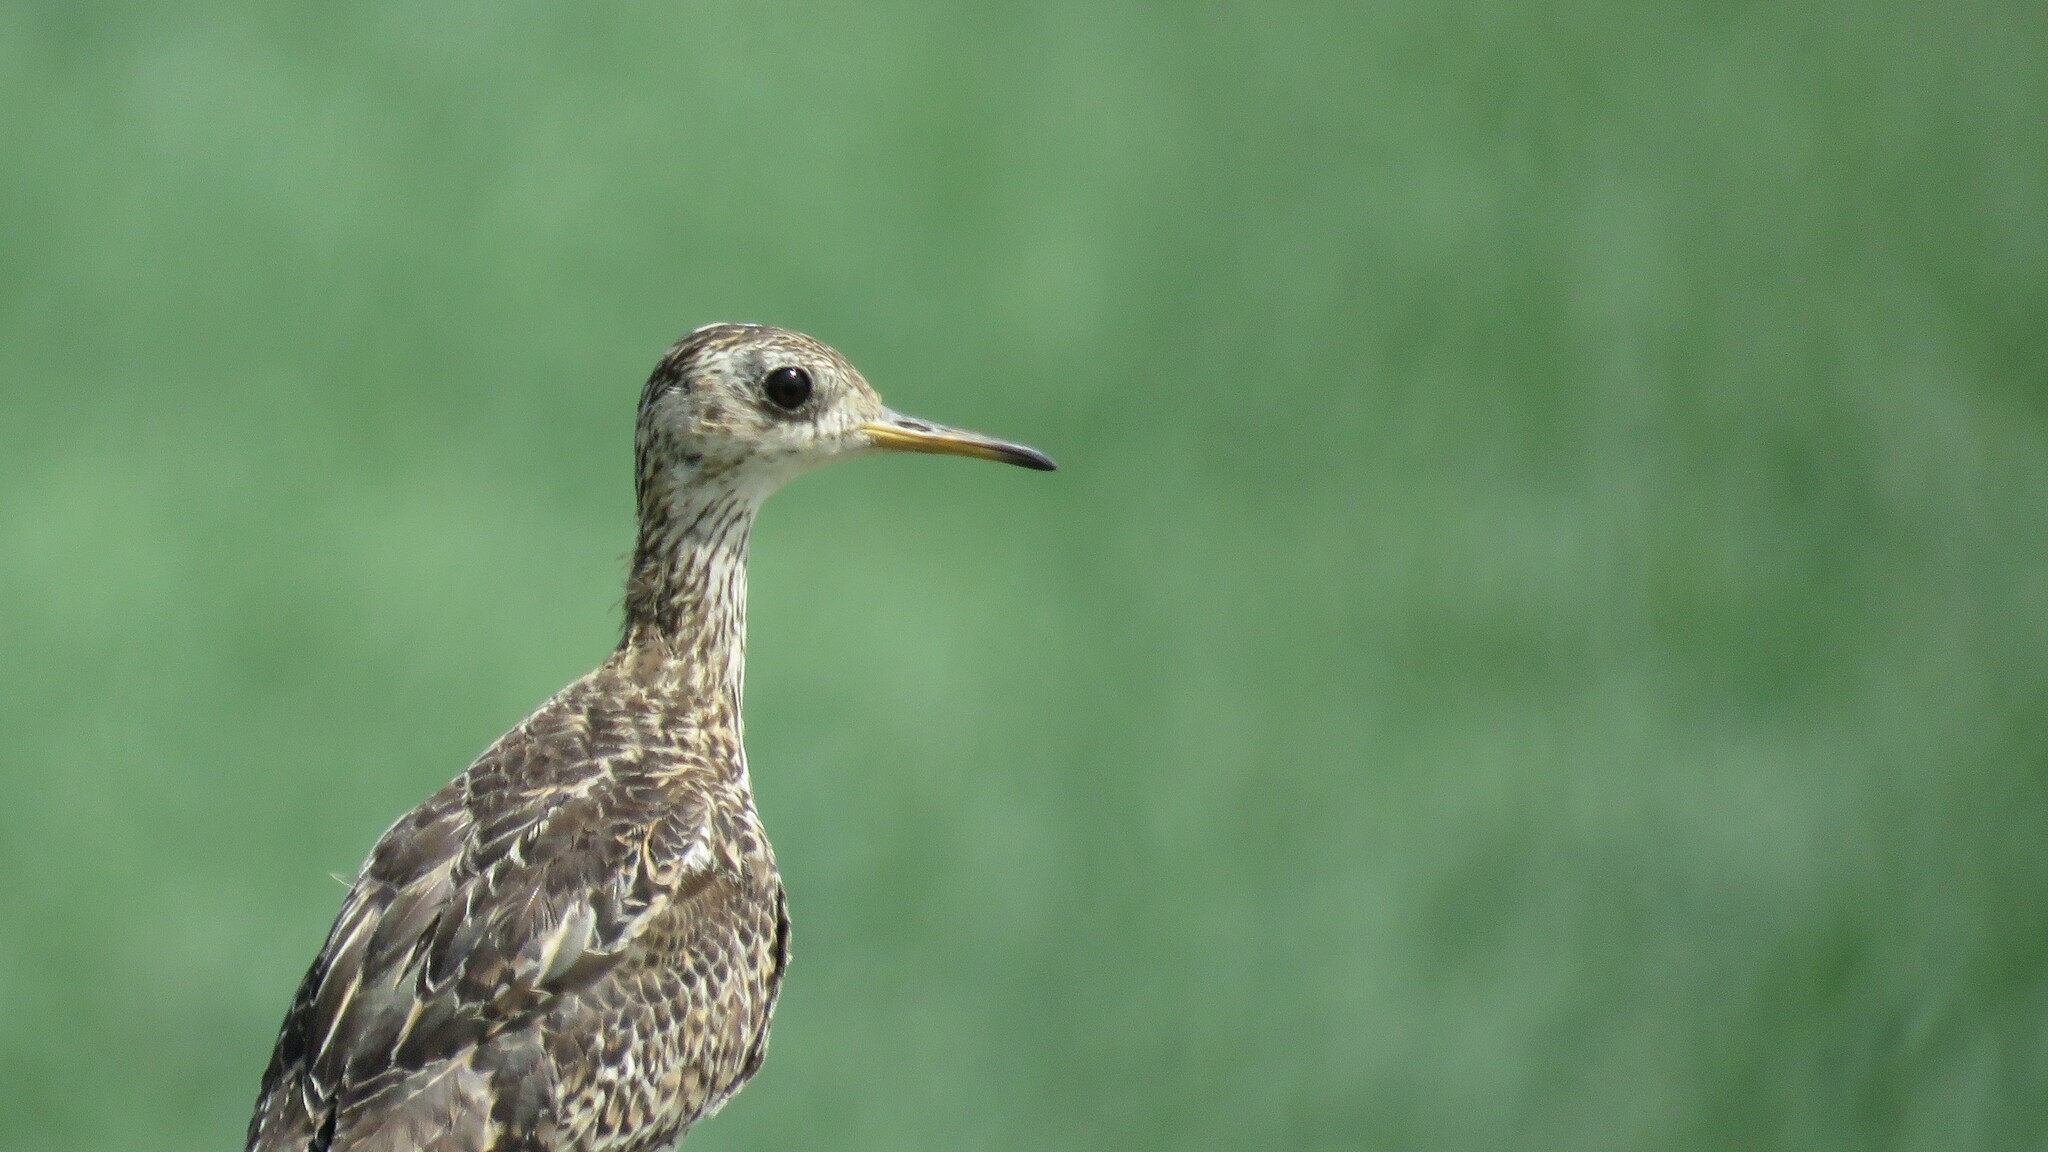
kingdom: Animalia
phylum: Chordata
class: Aves
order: Charadriiformes
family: Scolopacidae
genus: Bartramia
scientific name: Bartramia longicauda
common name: Upland sandpiper
